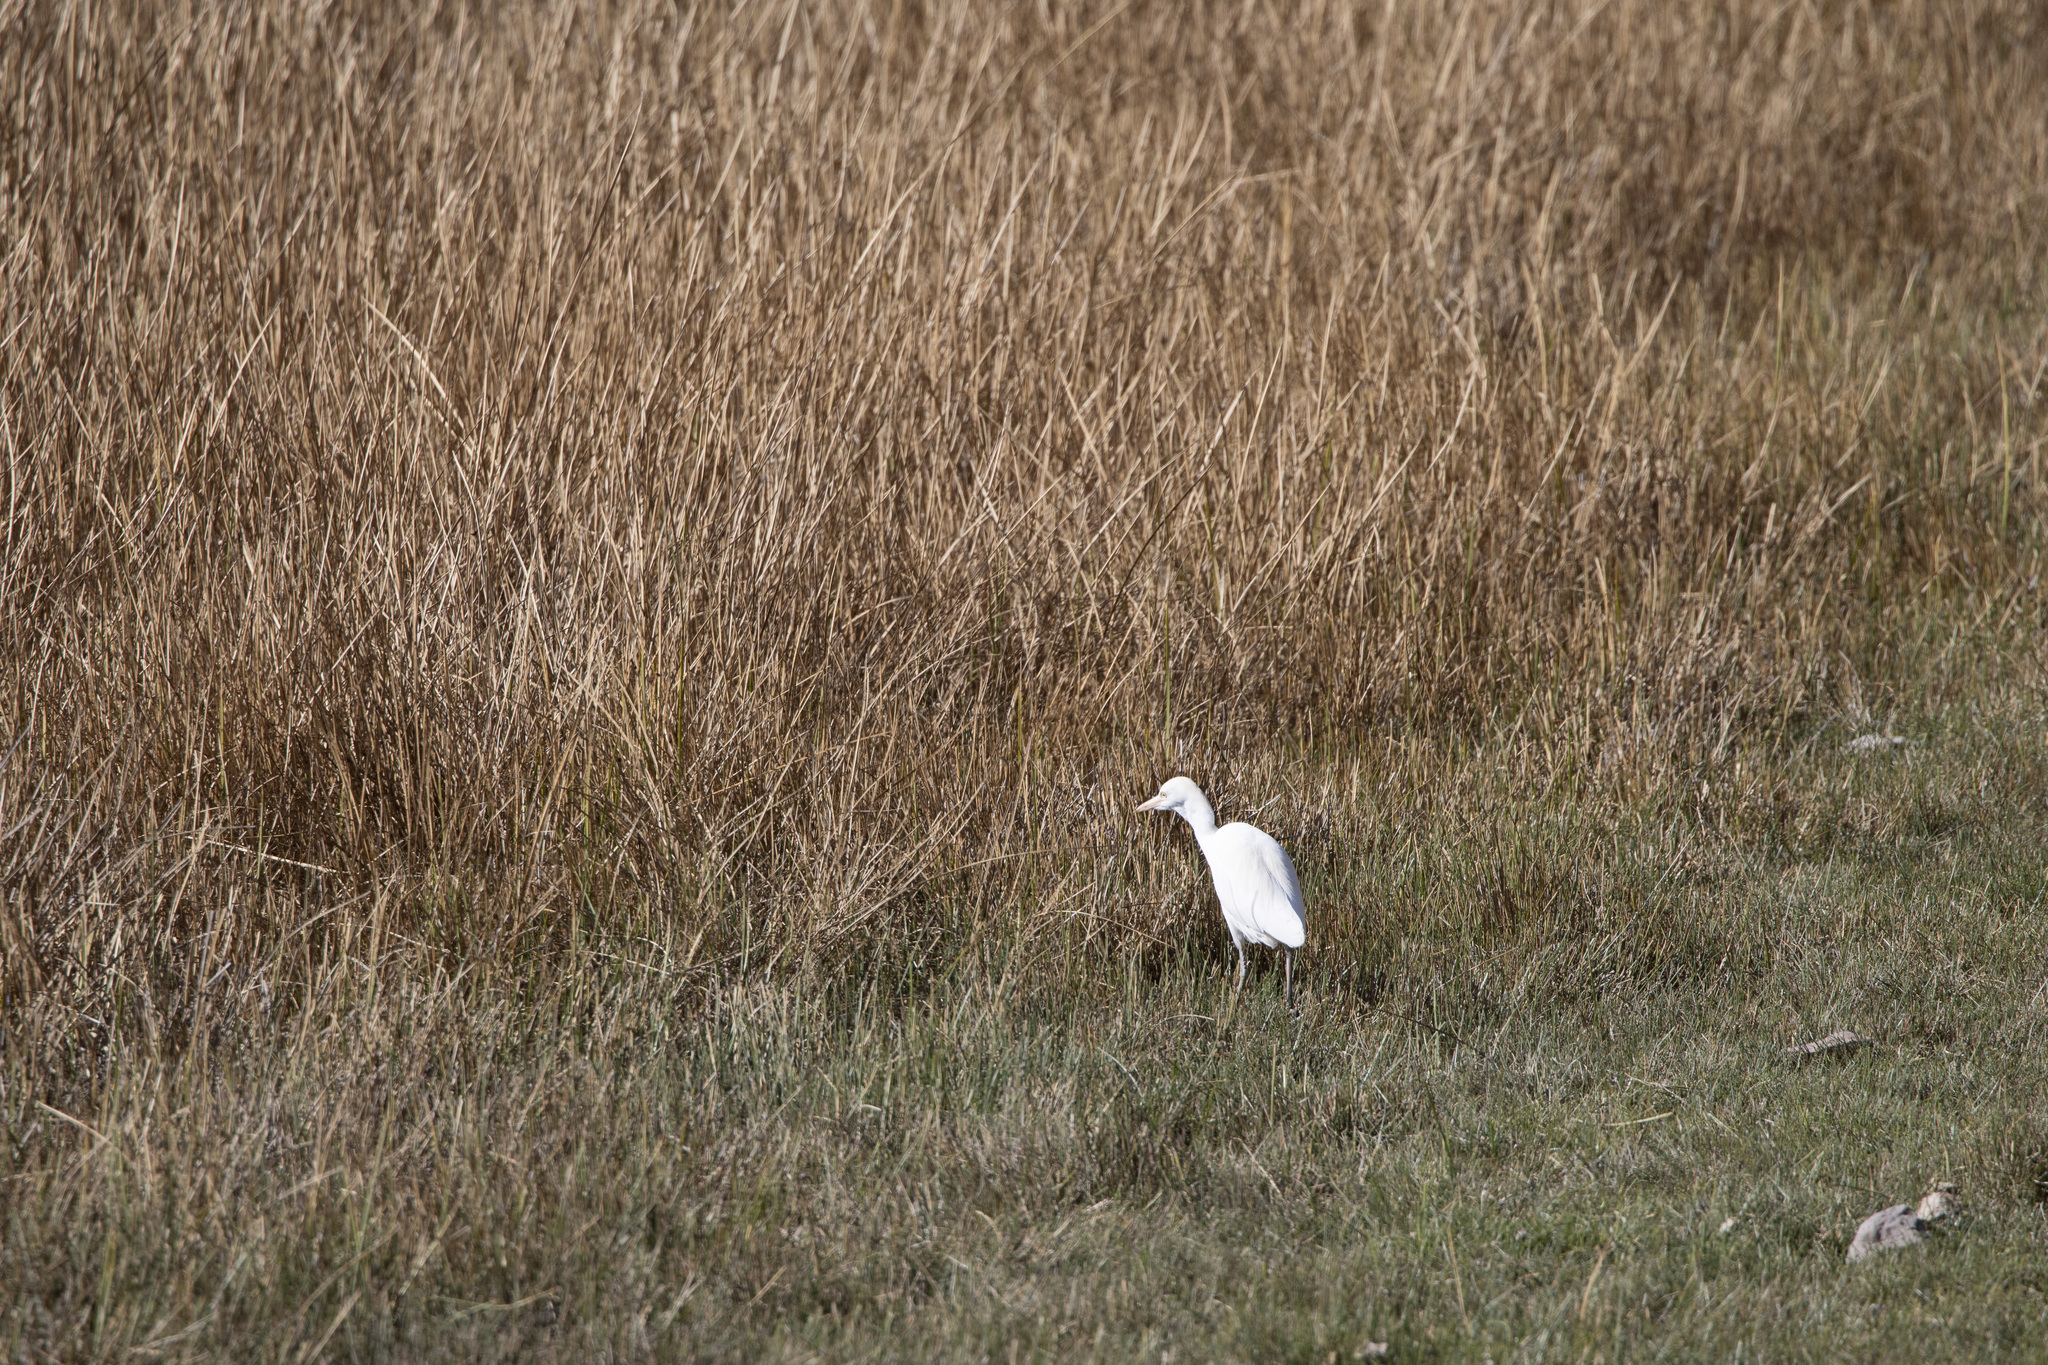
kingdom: Animalia
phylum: Chordata
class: Aves
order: Pelecaniformes
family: Ardeidae
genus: Bubulcus
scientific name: Bubulcus ibis
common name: Cattle egret
